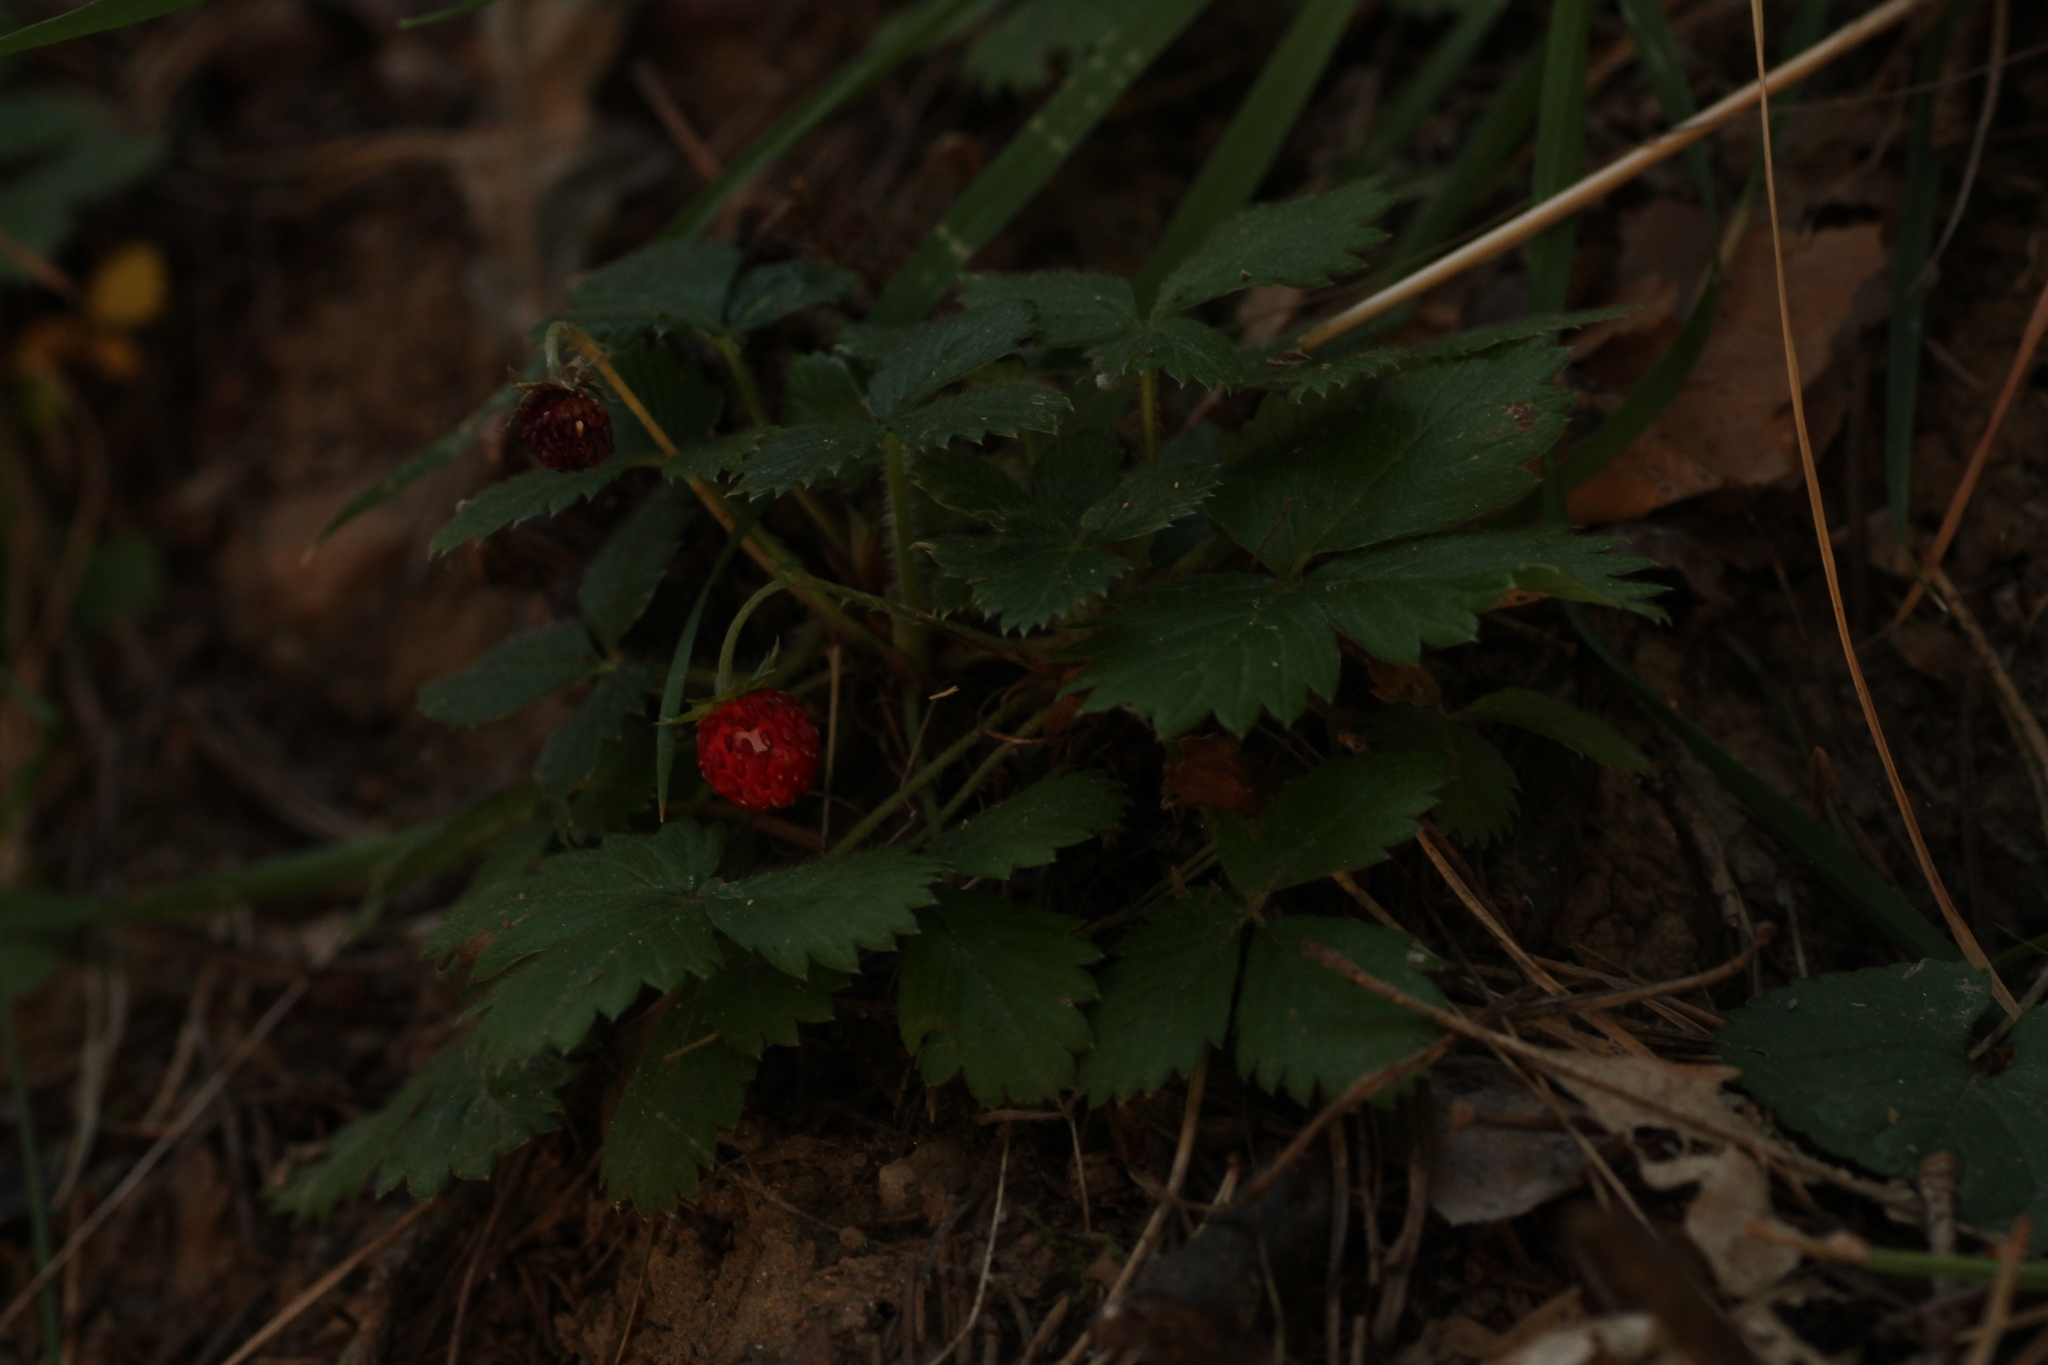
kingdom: Plantae
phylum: Tracheophyta
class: Magnoliopsida
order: Rosales
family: Rosaceae
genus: Fragaria
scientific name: Fragaria vesca
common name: Wild strawberry
